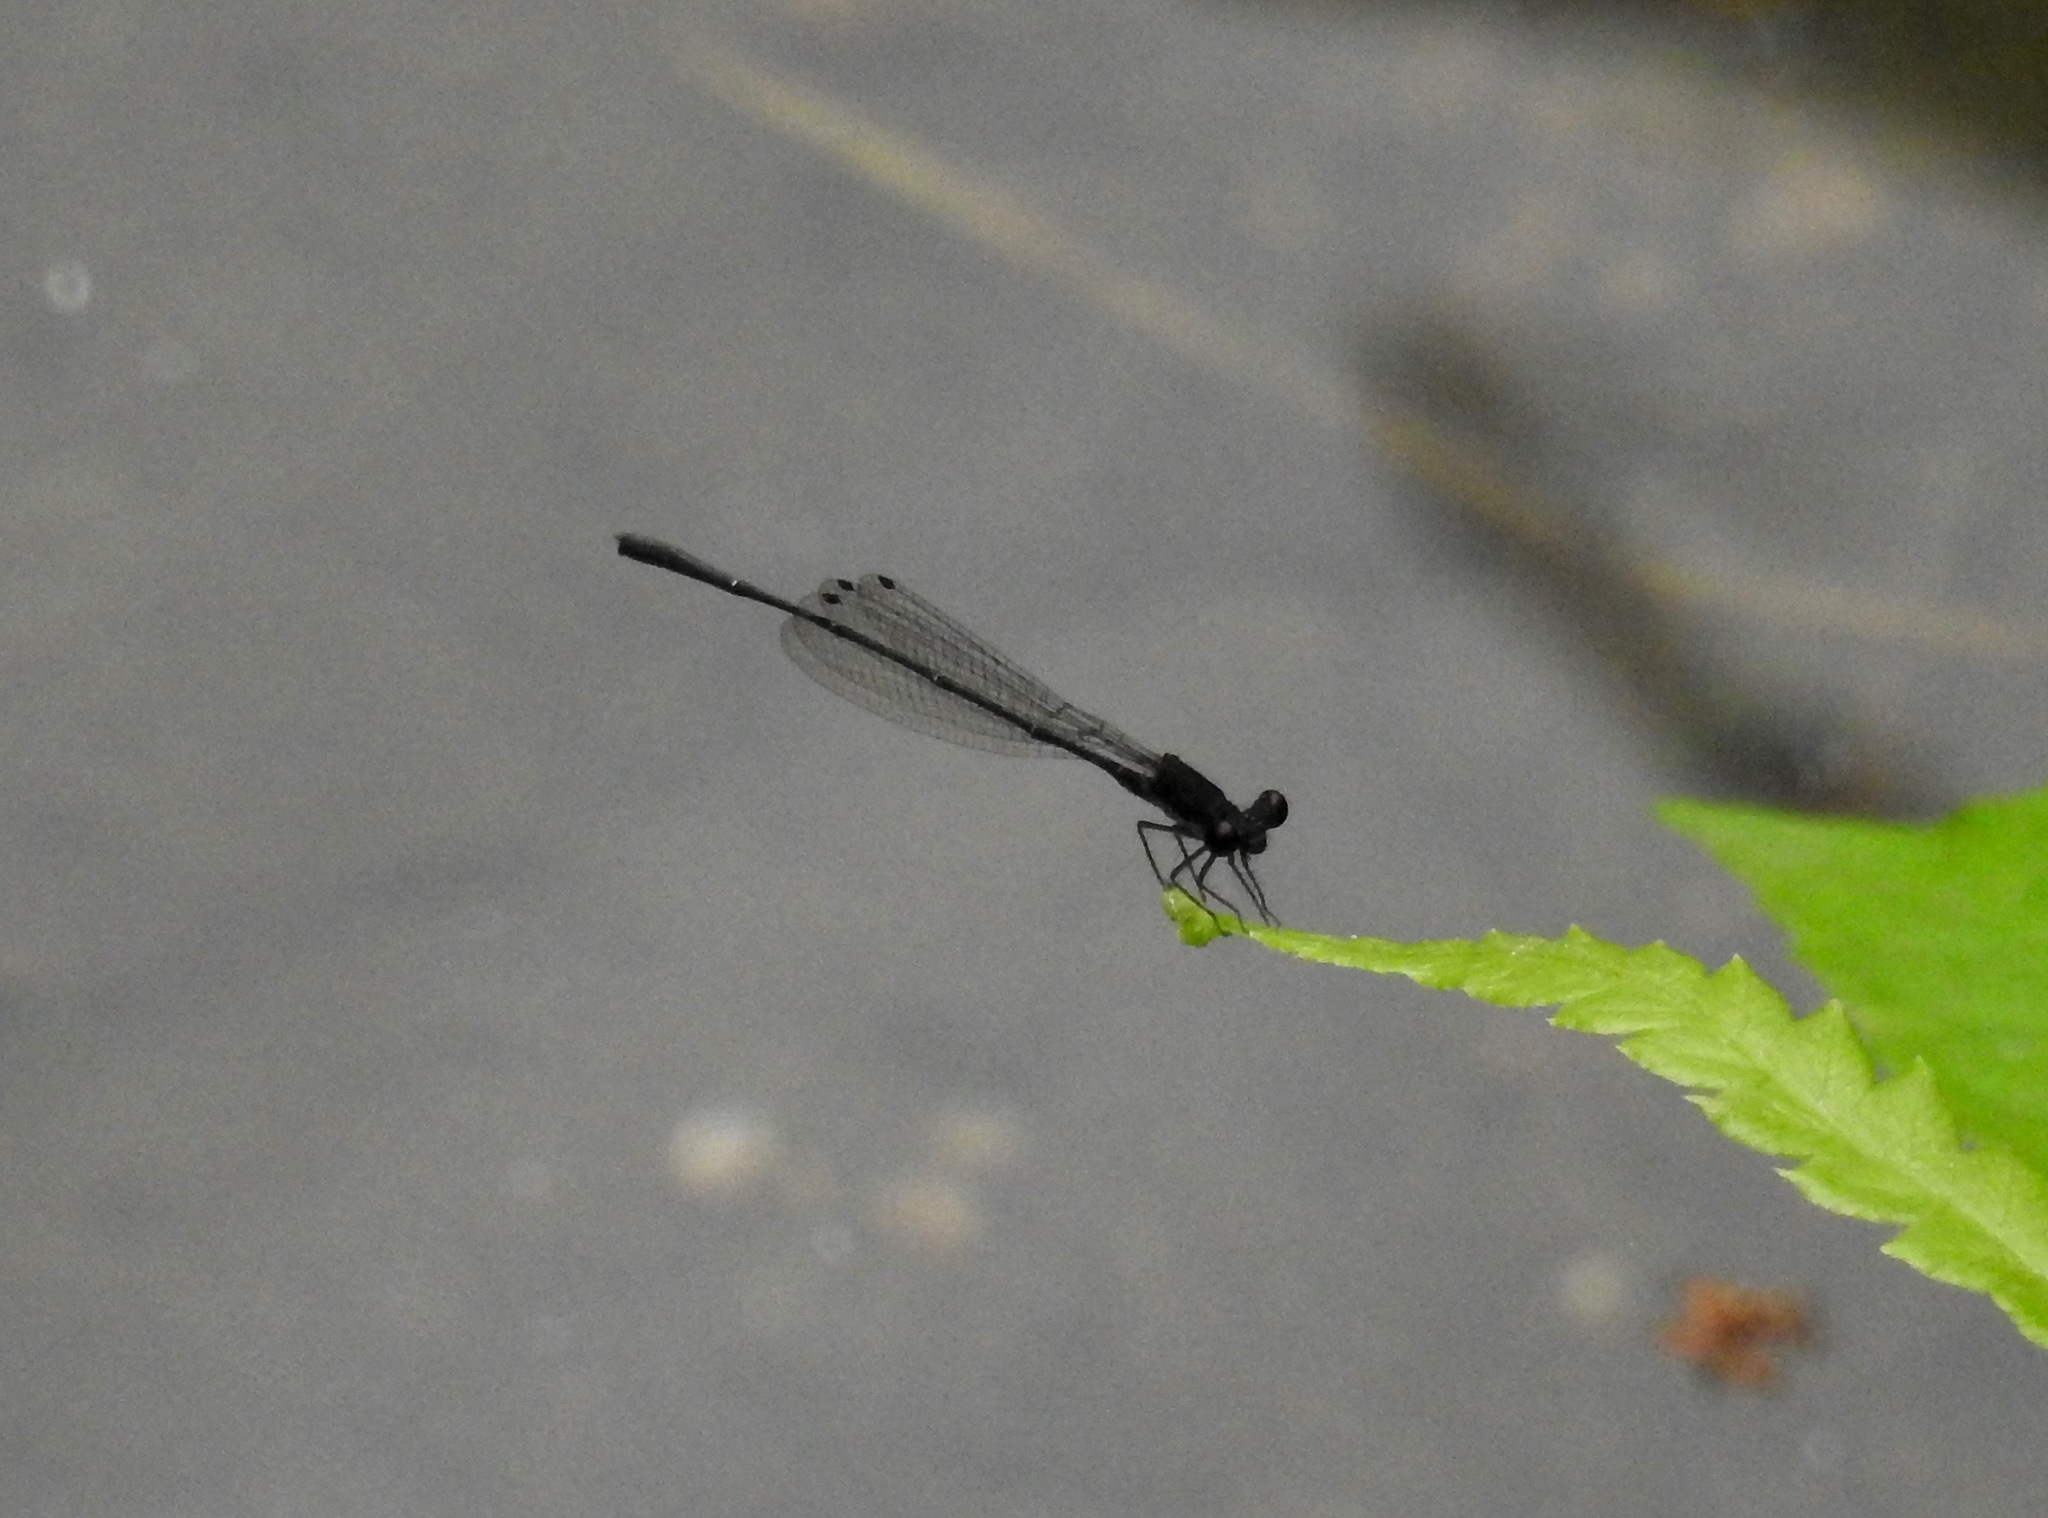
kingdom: Animalia
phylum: Arthropoda
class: Insecta
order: Odonata
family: Platycnemididae
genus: Prodasineura
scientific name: Prodasineura autumnalis
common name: Black threadtail
